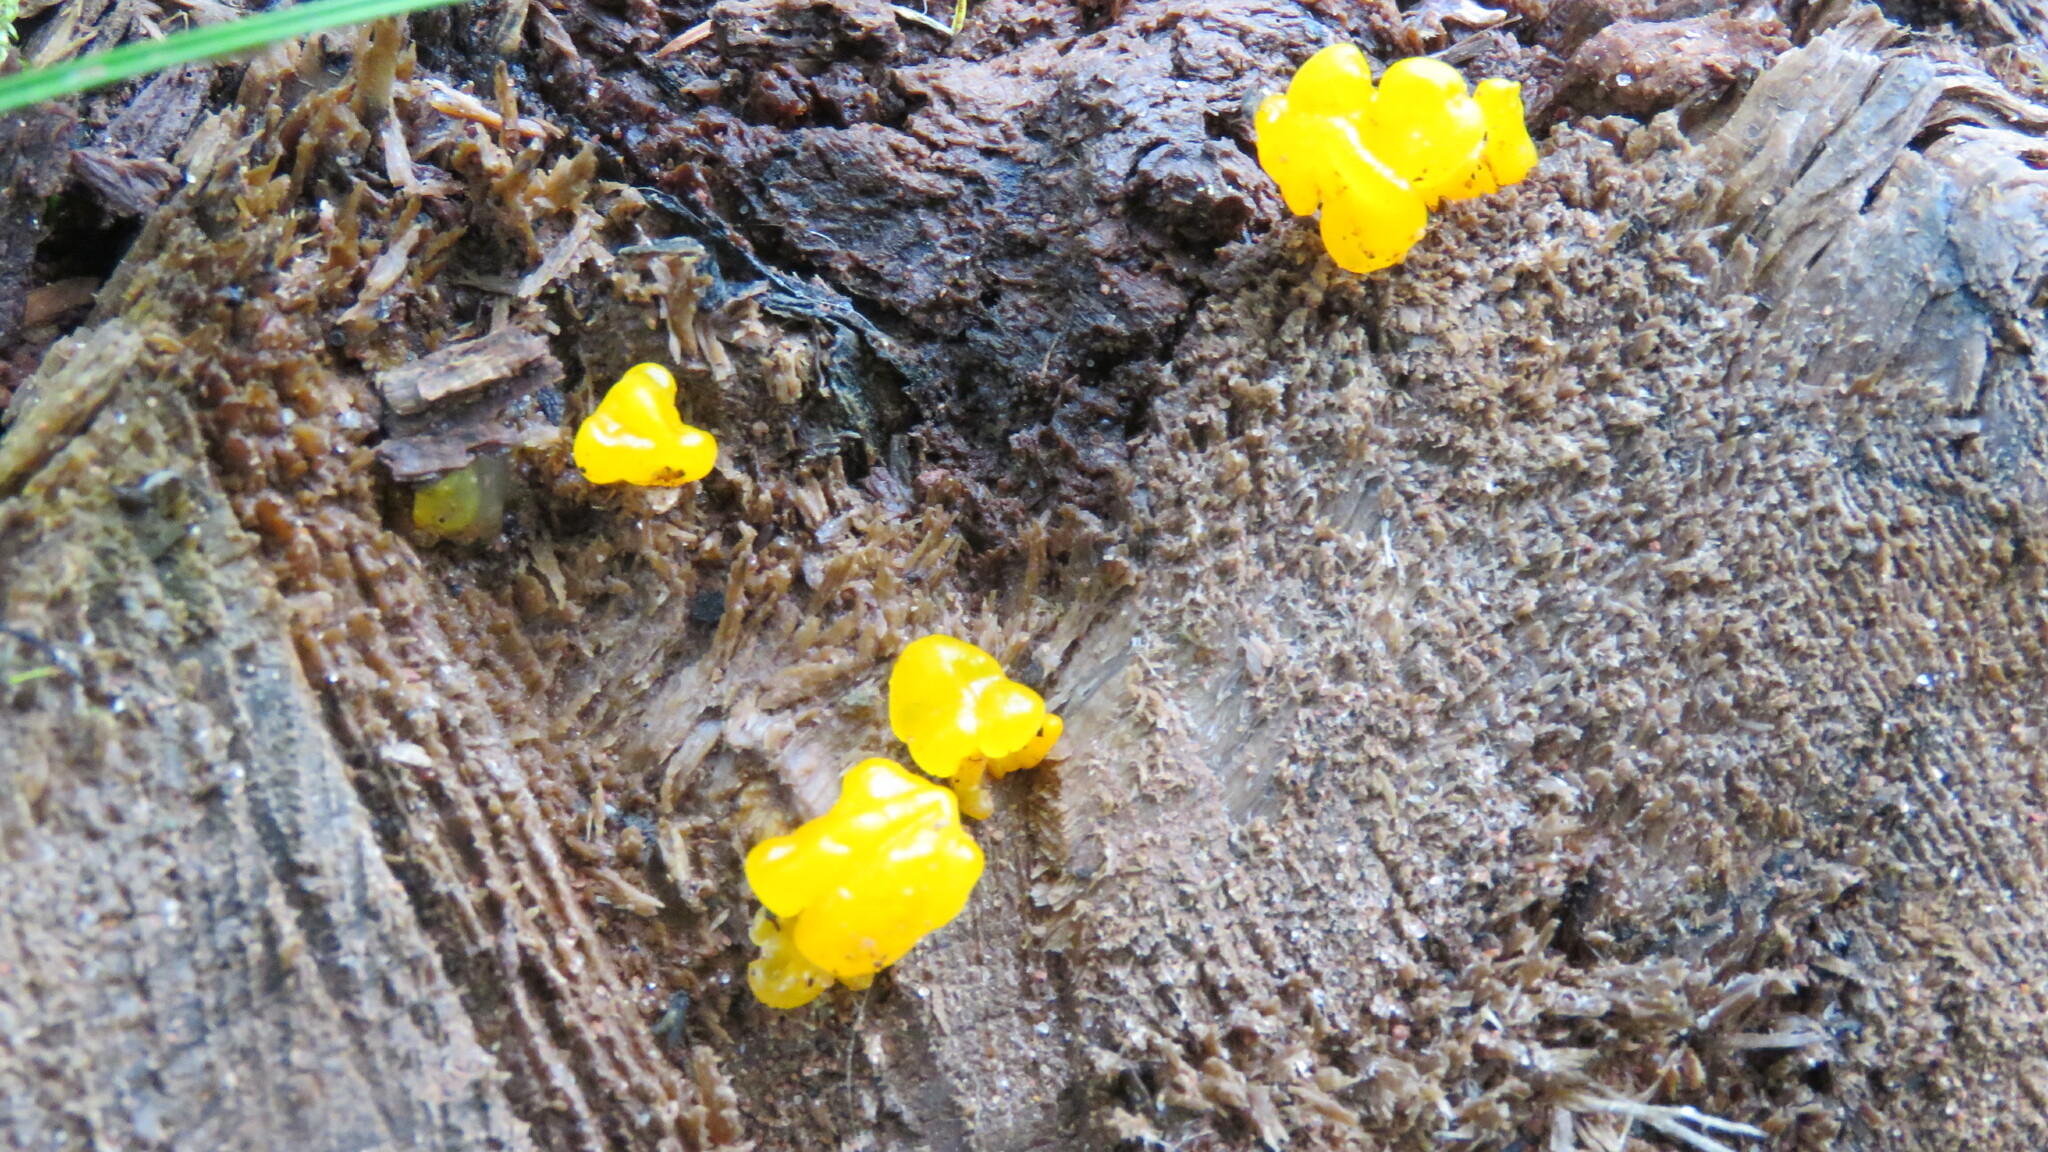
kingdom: Fungi
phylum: Basidiomycota
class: Dacrymycetes
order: Dacrymycetales
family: Dacrymycetaceae
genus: Dacrymyces
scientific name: Dacrymyces chrysospermus
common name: Orange jelly spot
